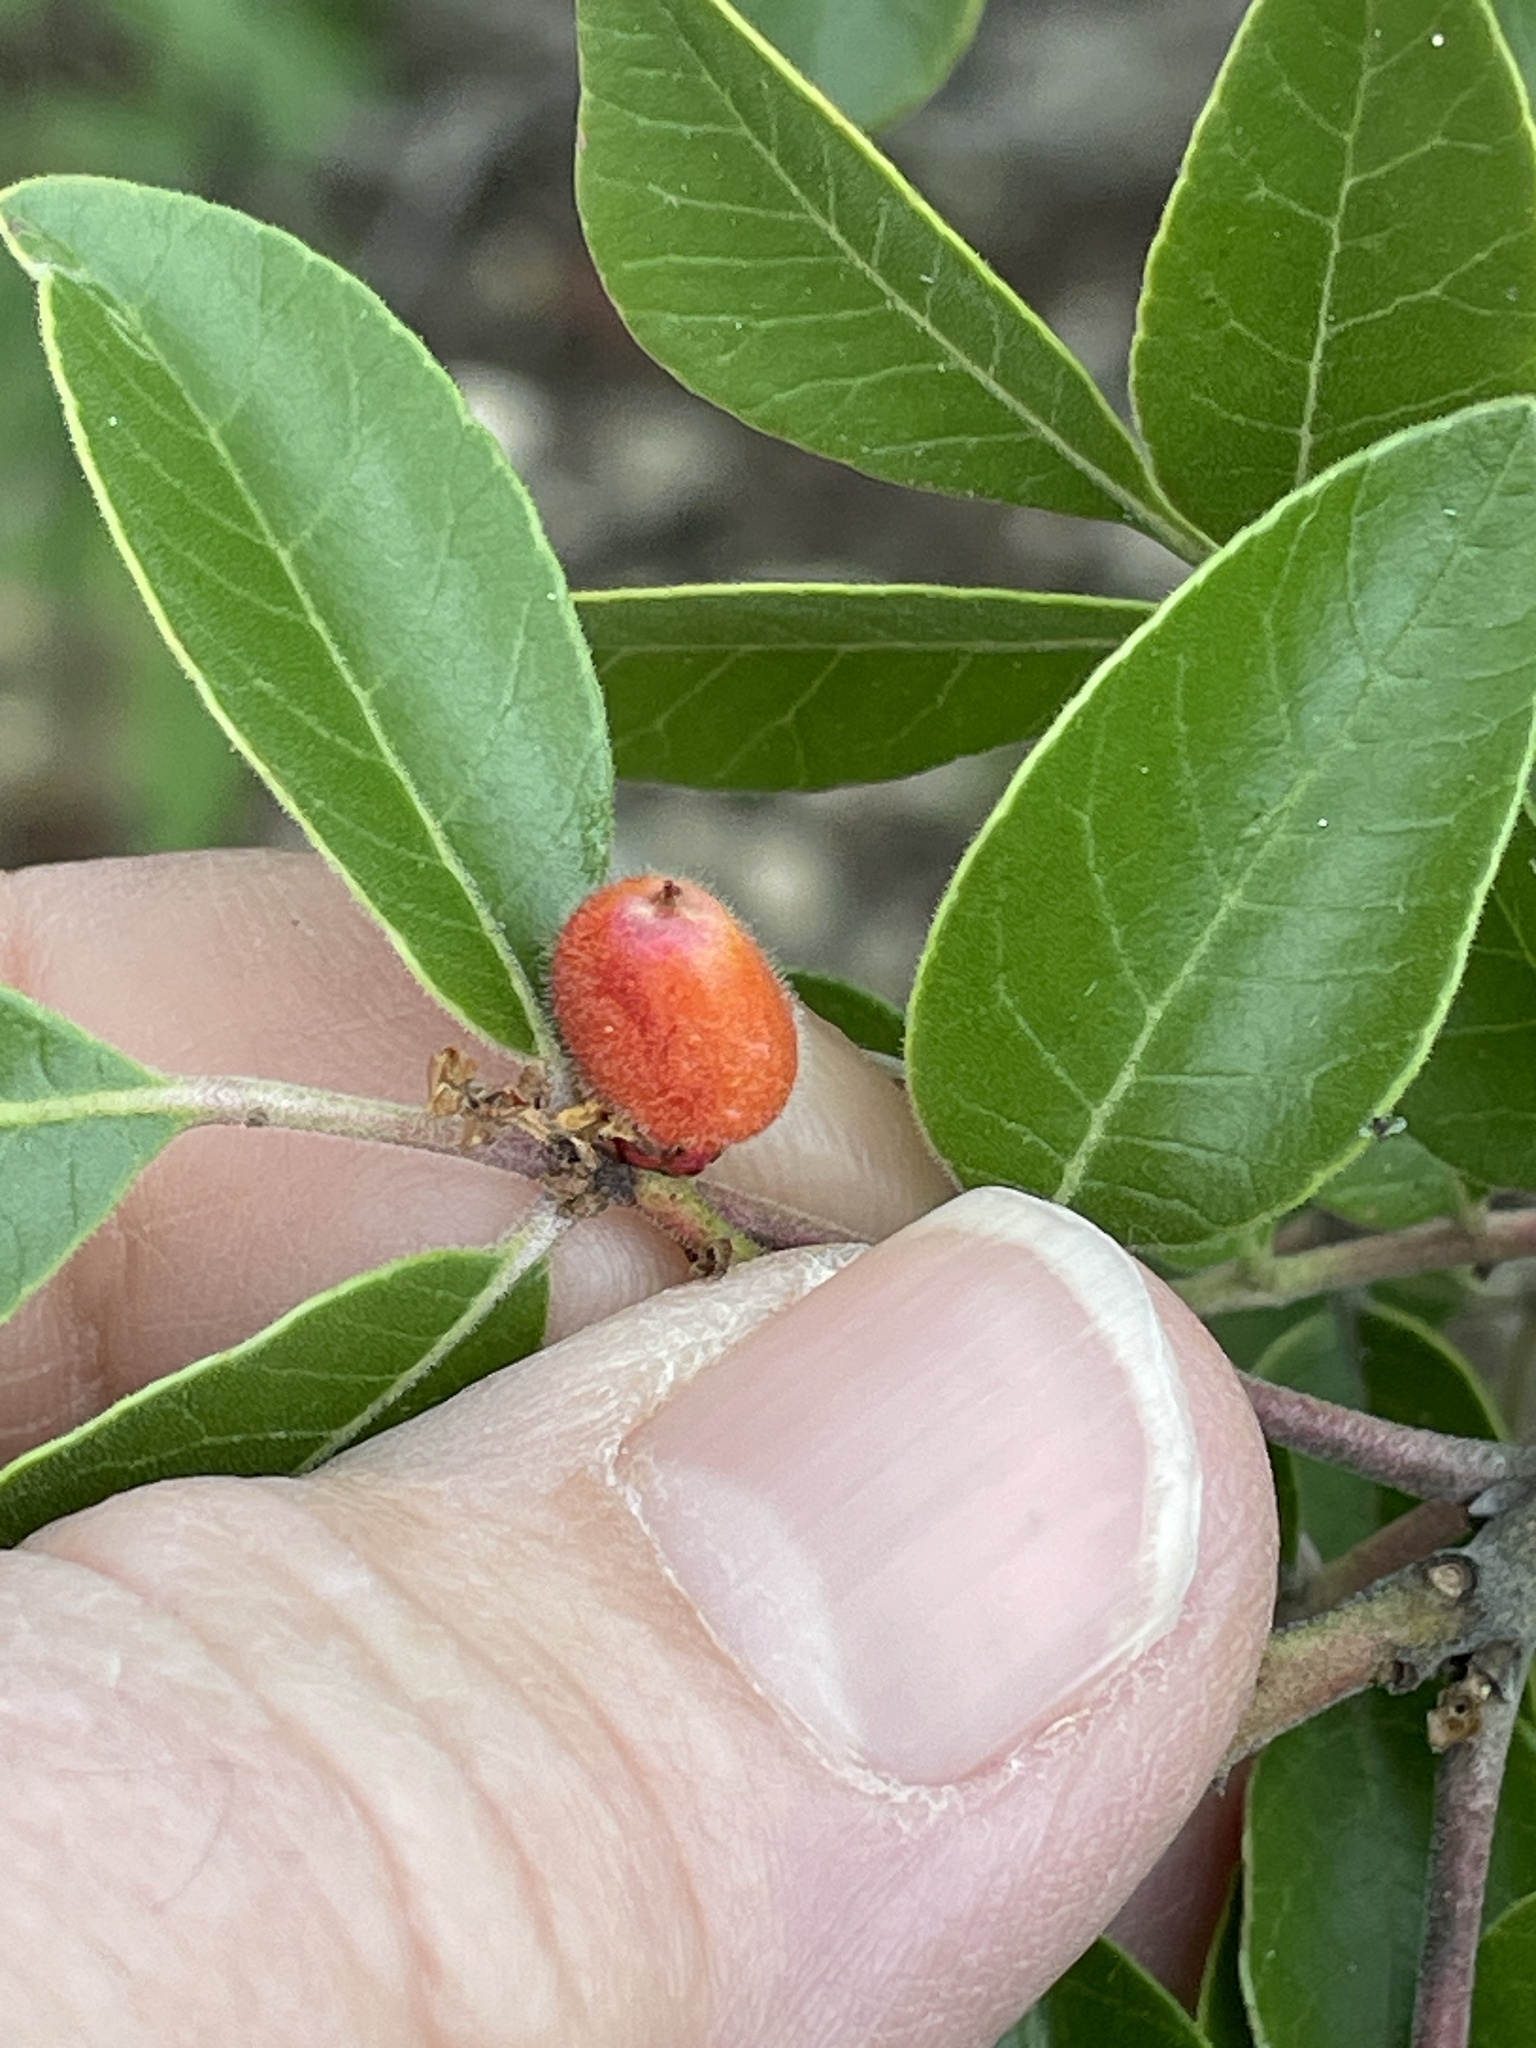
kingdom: Plantae
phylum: Tracheophyta
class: Magnoliopsida
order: Sapindales
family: Anacardiaceae
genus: Rhus
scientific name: Rhus virens
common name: Evergreen sumac
